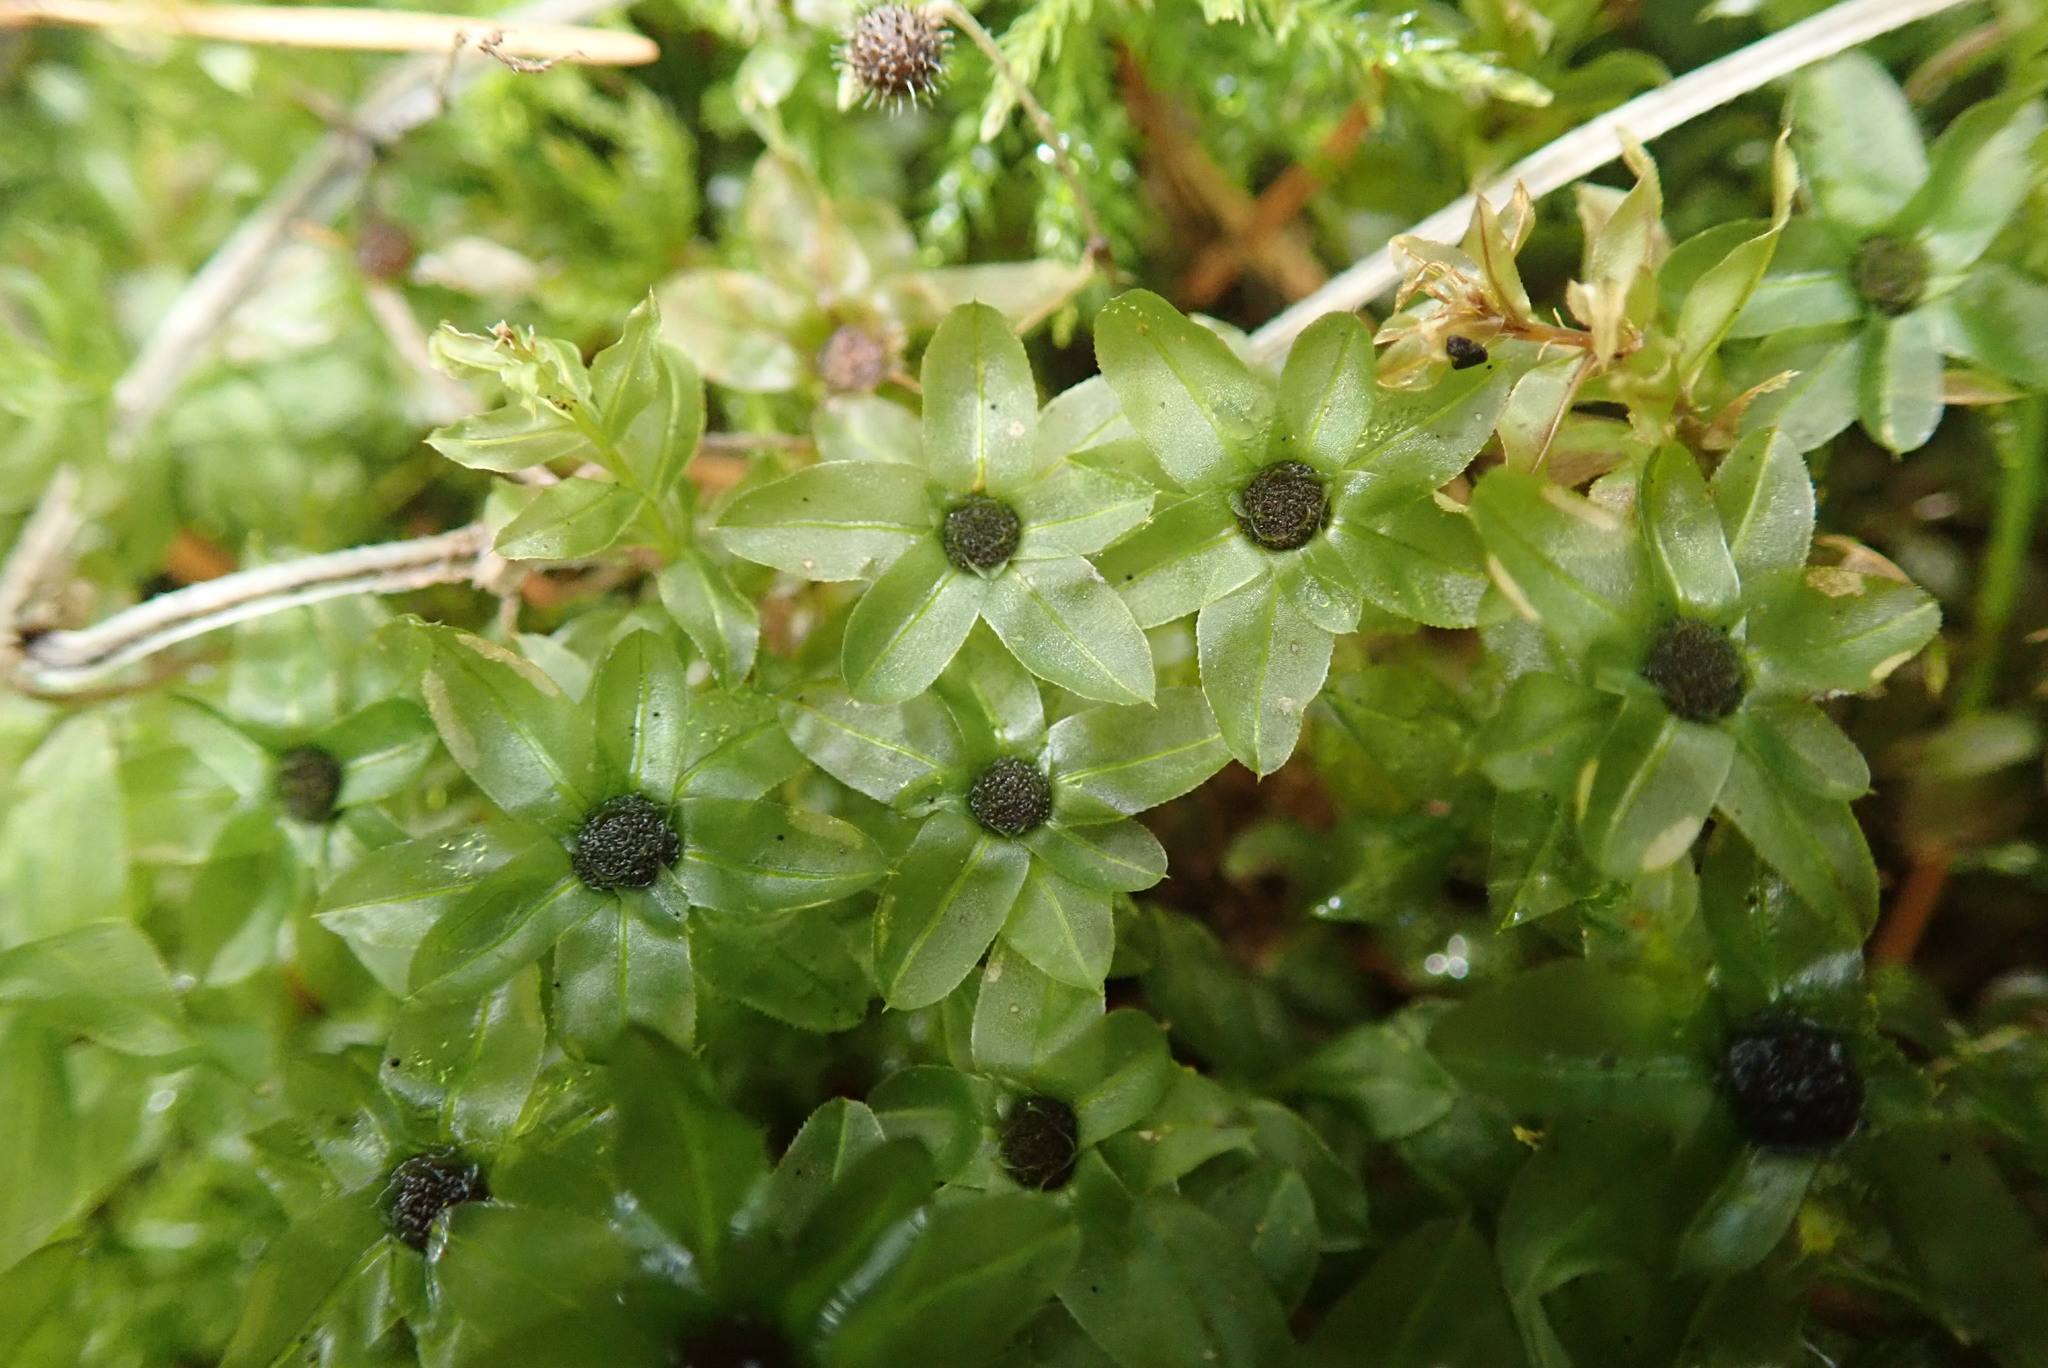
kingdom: Plantae
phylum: Bryophyta
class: Bryopsida
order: Bryales
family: Mniaceae
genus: Plagiomnium
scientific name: Plagiomnium insigne
